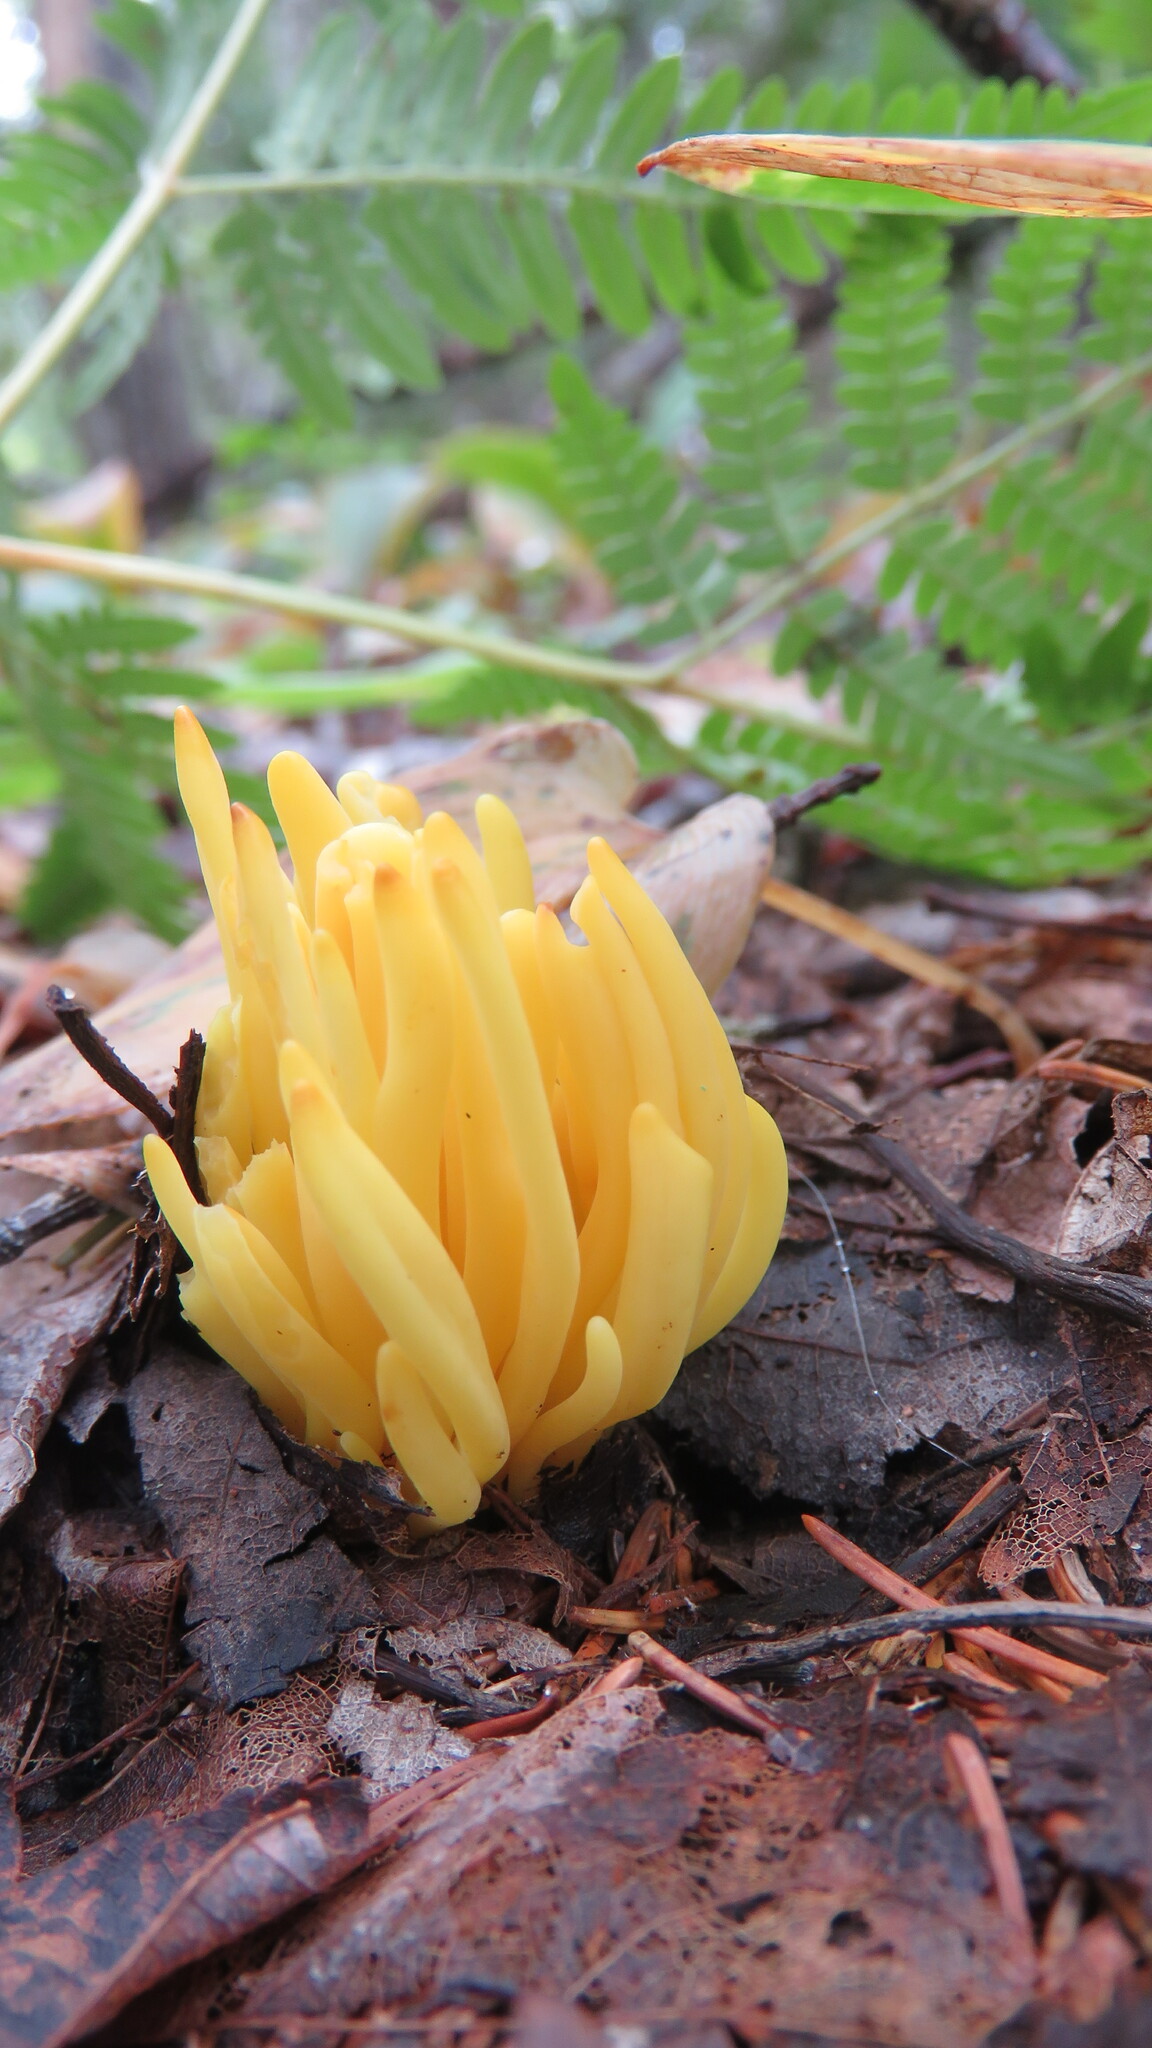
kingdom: Fungi
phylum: Basidiomycota
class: Agaricomycetes
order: Agaricales
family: Clavariaceae
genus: Clavulinopsis
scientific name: Clavulinopsis fusiformis
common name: Golden spindles
